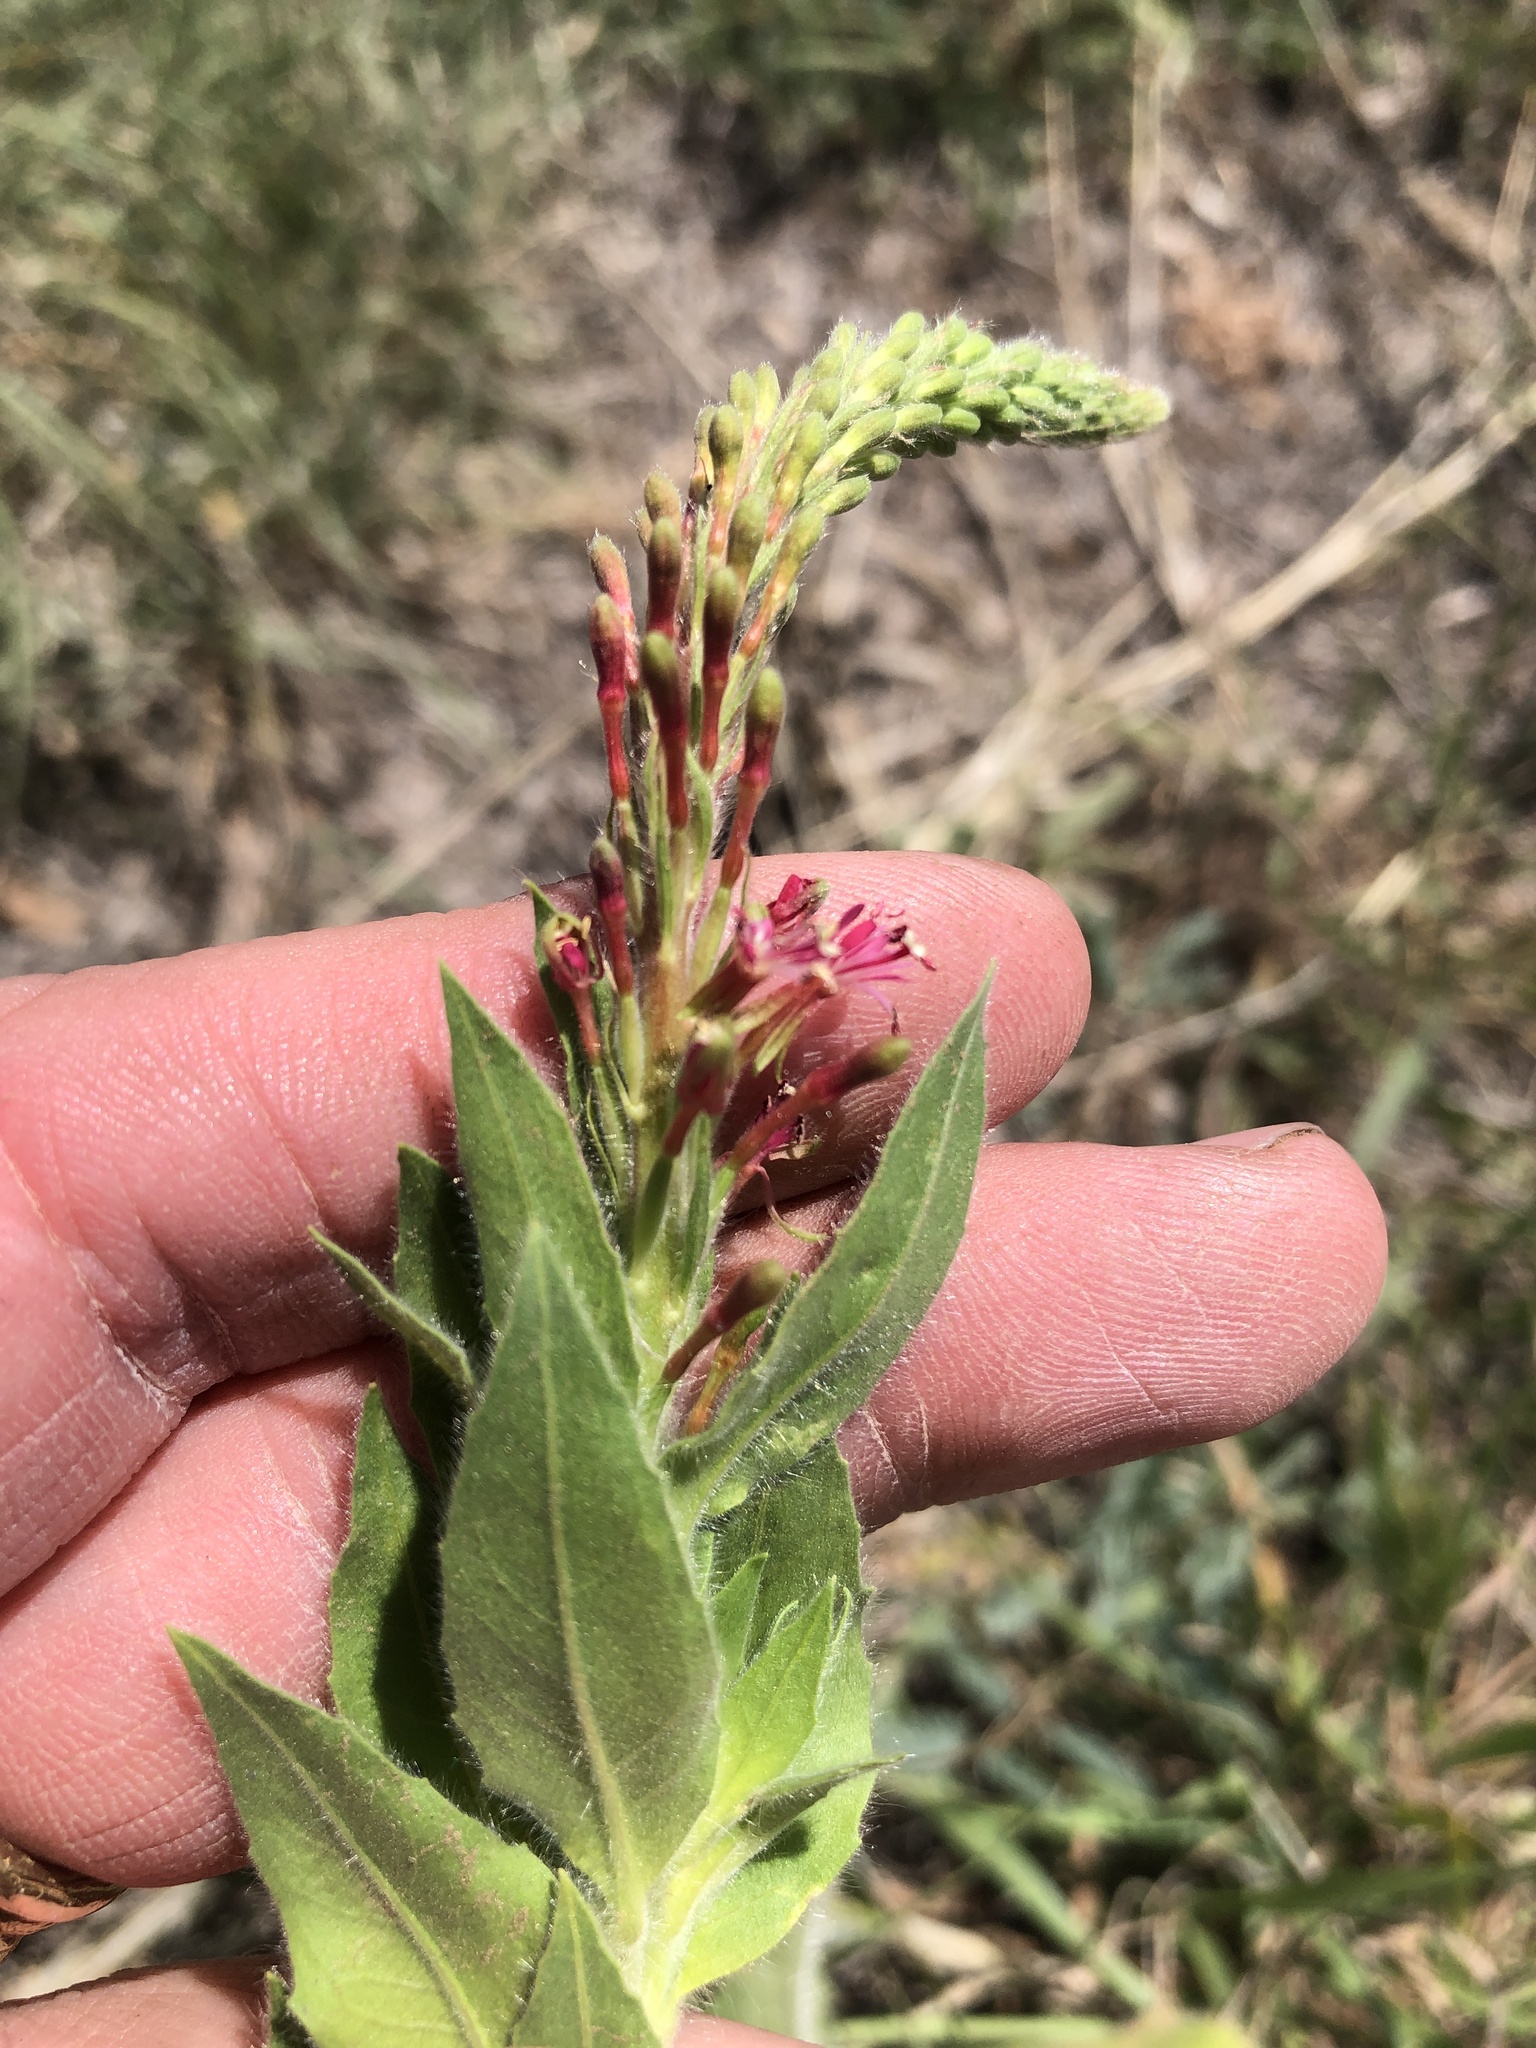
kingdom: Plantae
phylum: Tracheophyta
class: Magnoliopsida
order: Myrtales
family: Onagraceae
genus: Oenothera
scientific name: Oenothera curtiflora
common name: Velvetweed
